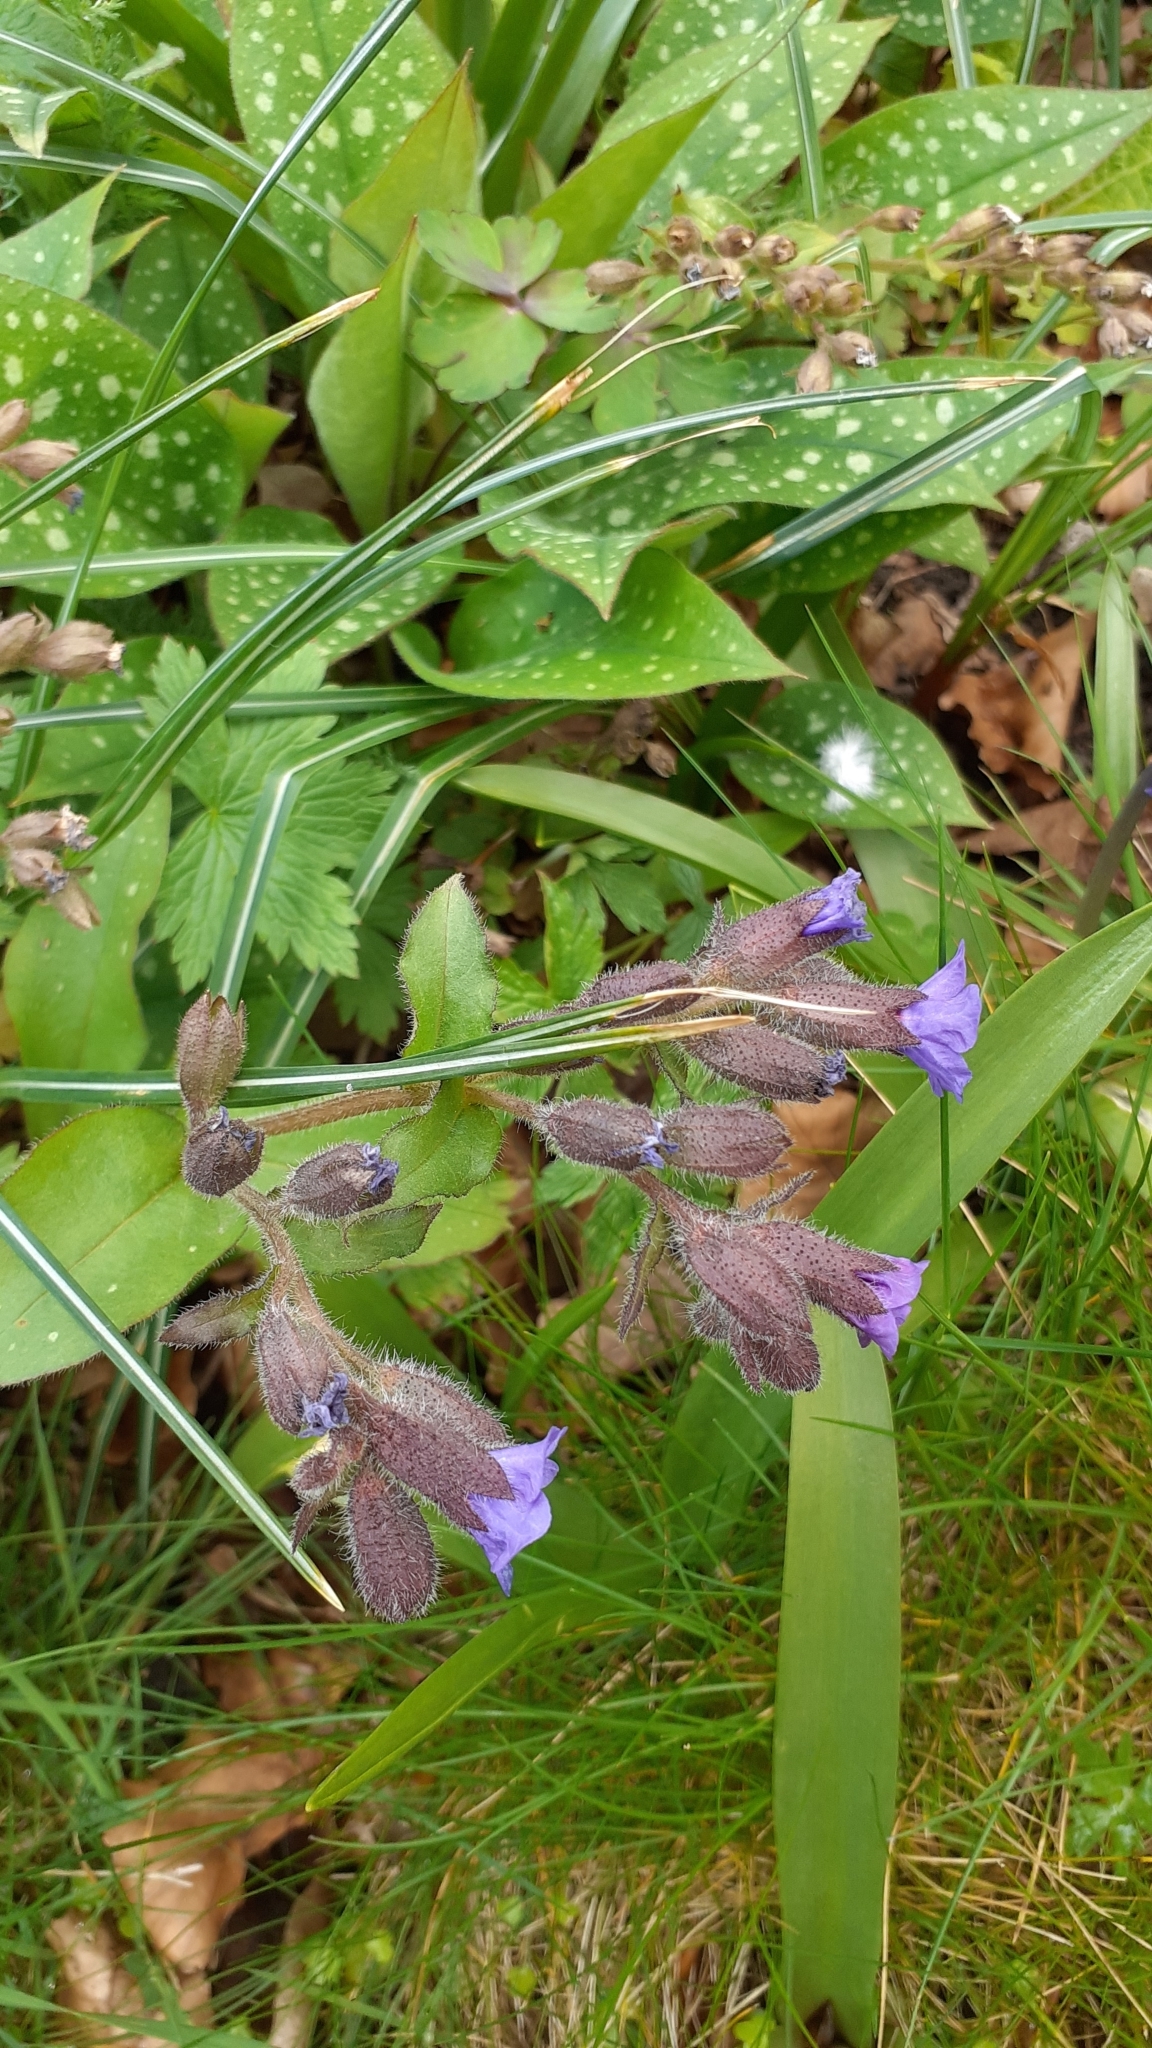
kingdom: Plantae
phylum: Tracheophyta
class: Magnoliopsida
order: Boraginales
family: Boraginaceae
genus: Pulmonaria
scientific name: Pulmonaria officinalis
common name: Lungwort
